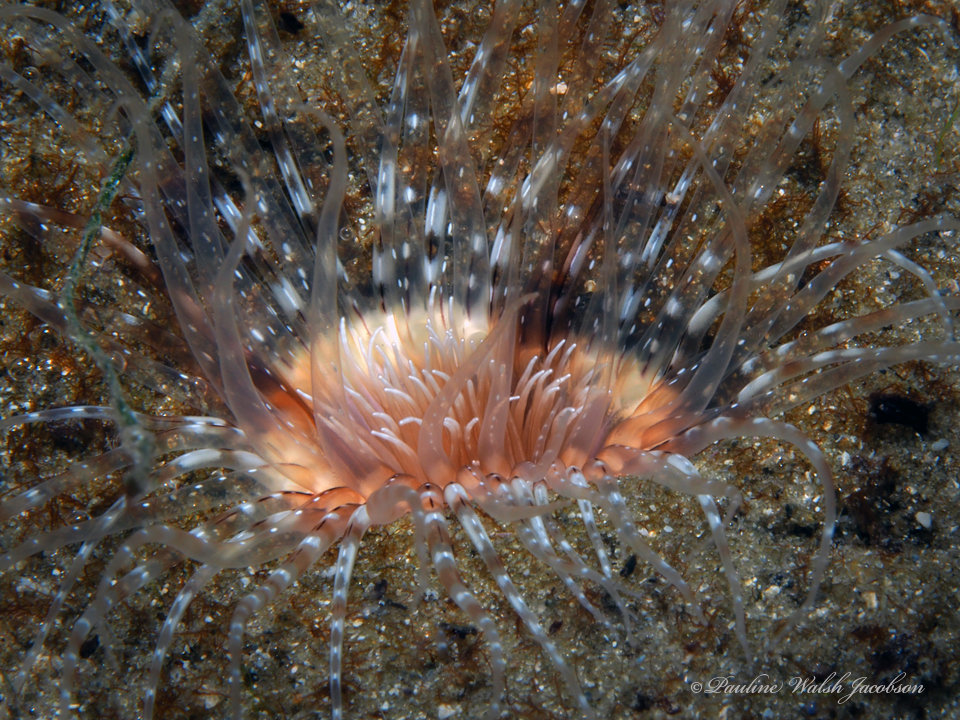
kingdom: Animalia
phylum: Cnidaria
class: Anthozoa
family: Cerianthidae
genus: Ceriantheopsis
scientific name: Ceriantheopsis americana
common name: American tube-dwelling anemone
